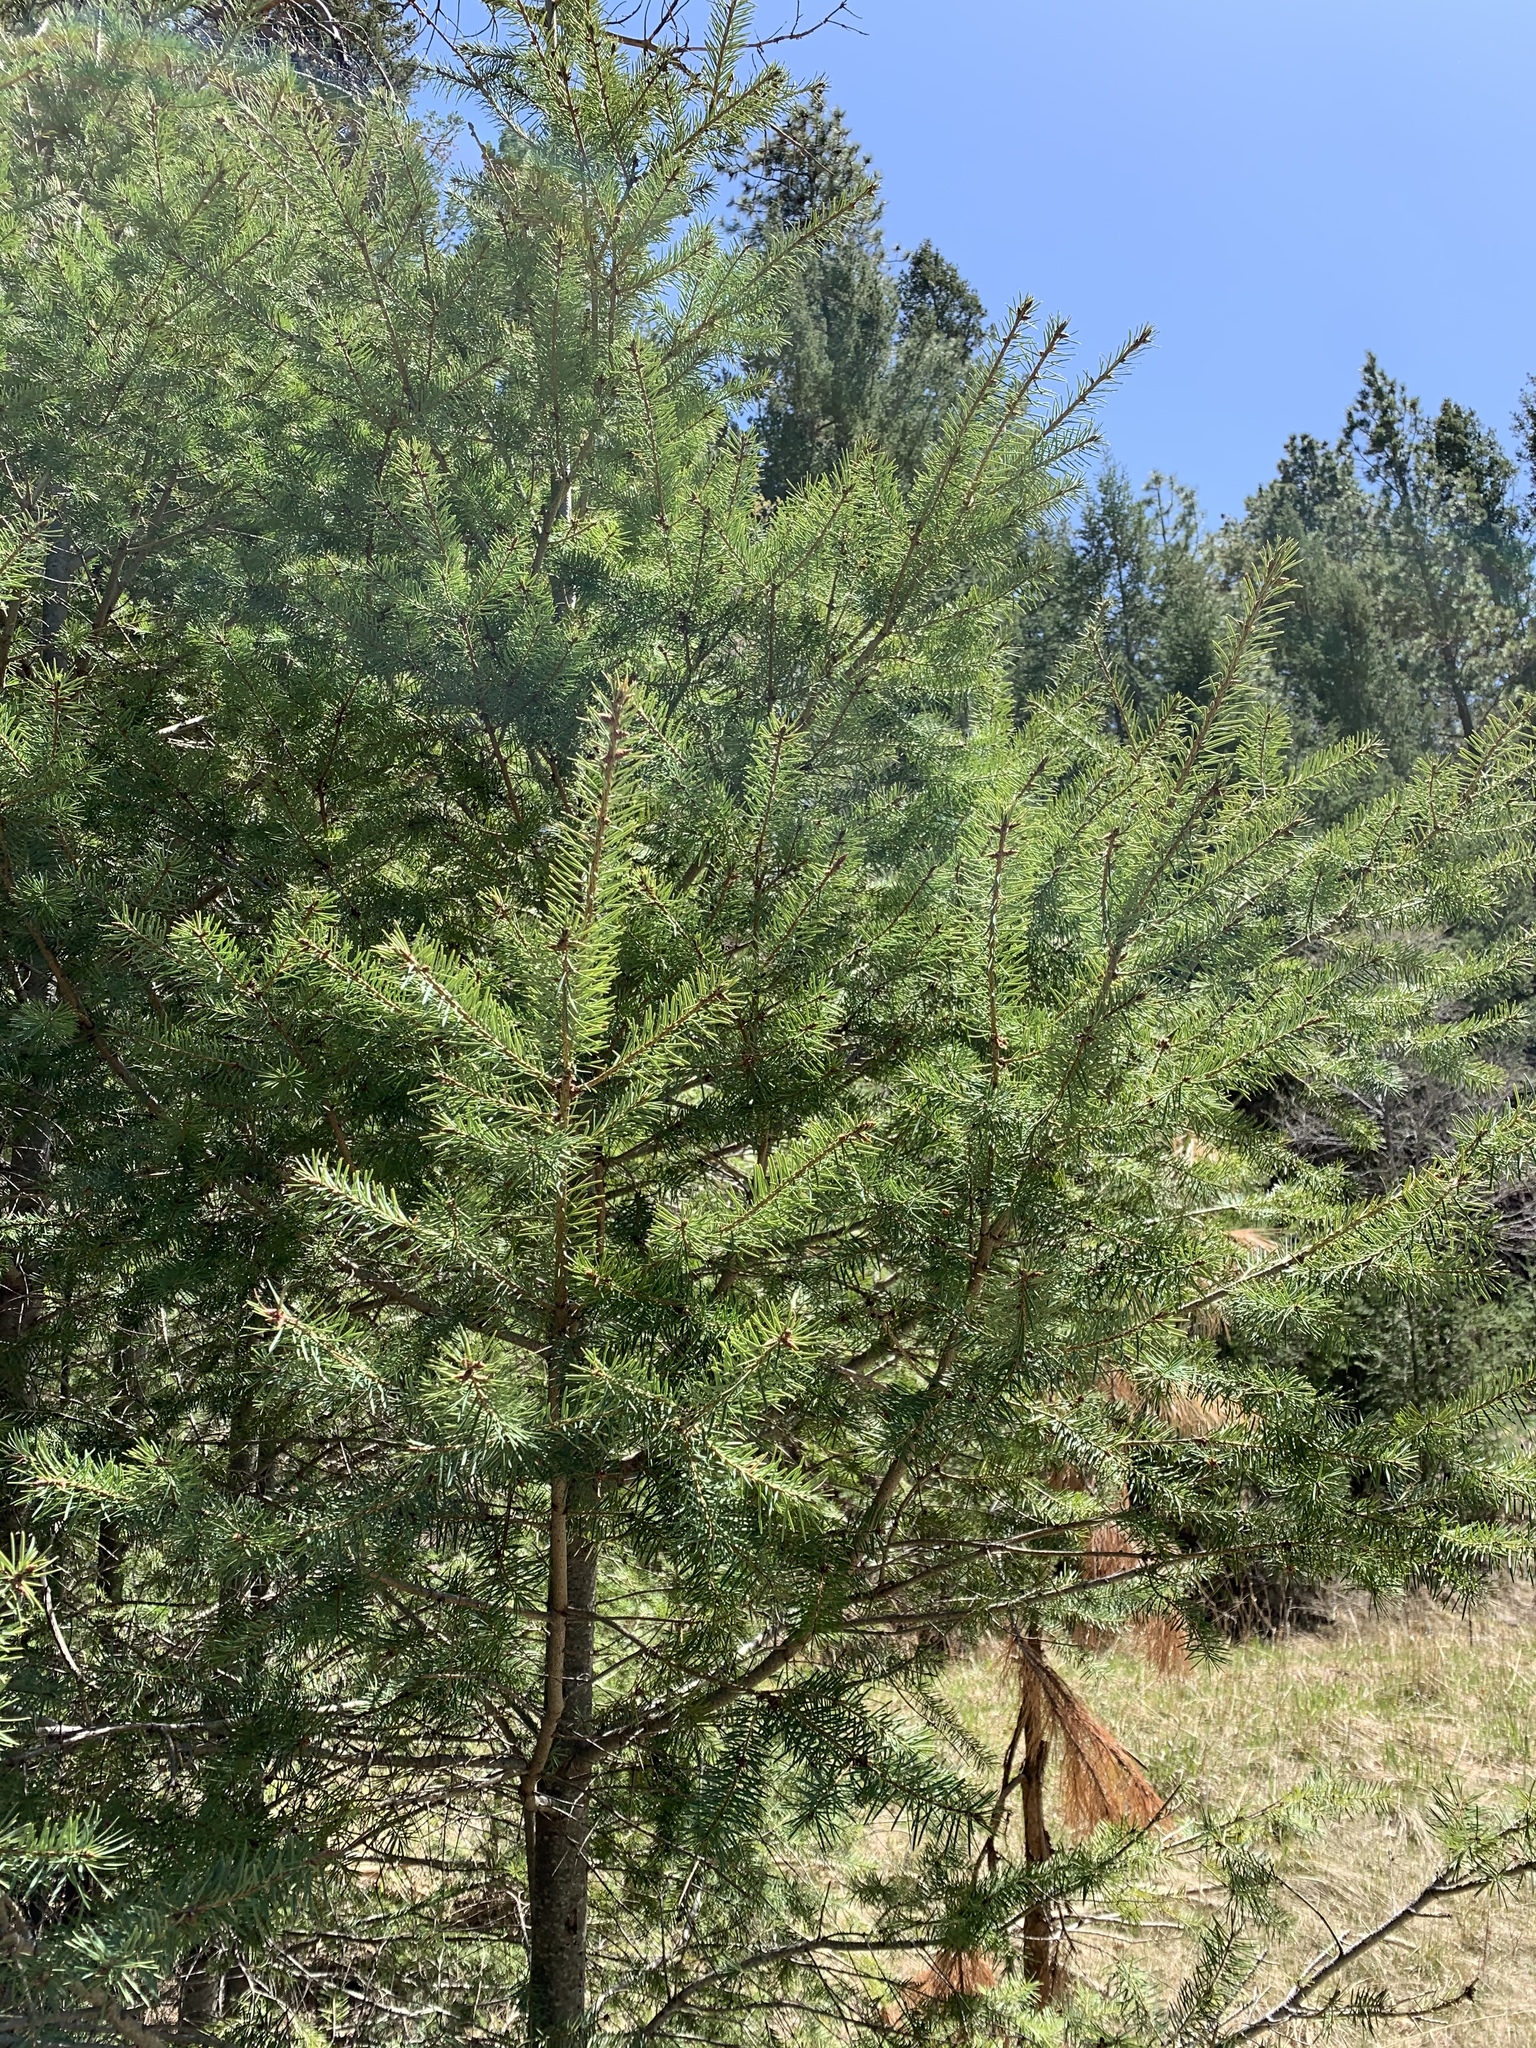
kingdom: Plantae
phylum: Tracheophyta
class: Pinopsida
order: Pinales
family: Pinaceae
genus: Pseudotsuga
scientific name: Pseudotsuga menziesii
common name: Douglas fir
